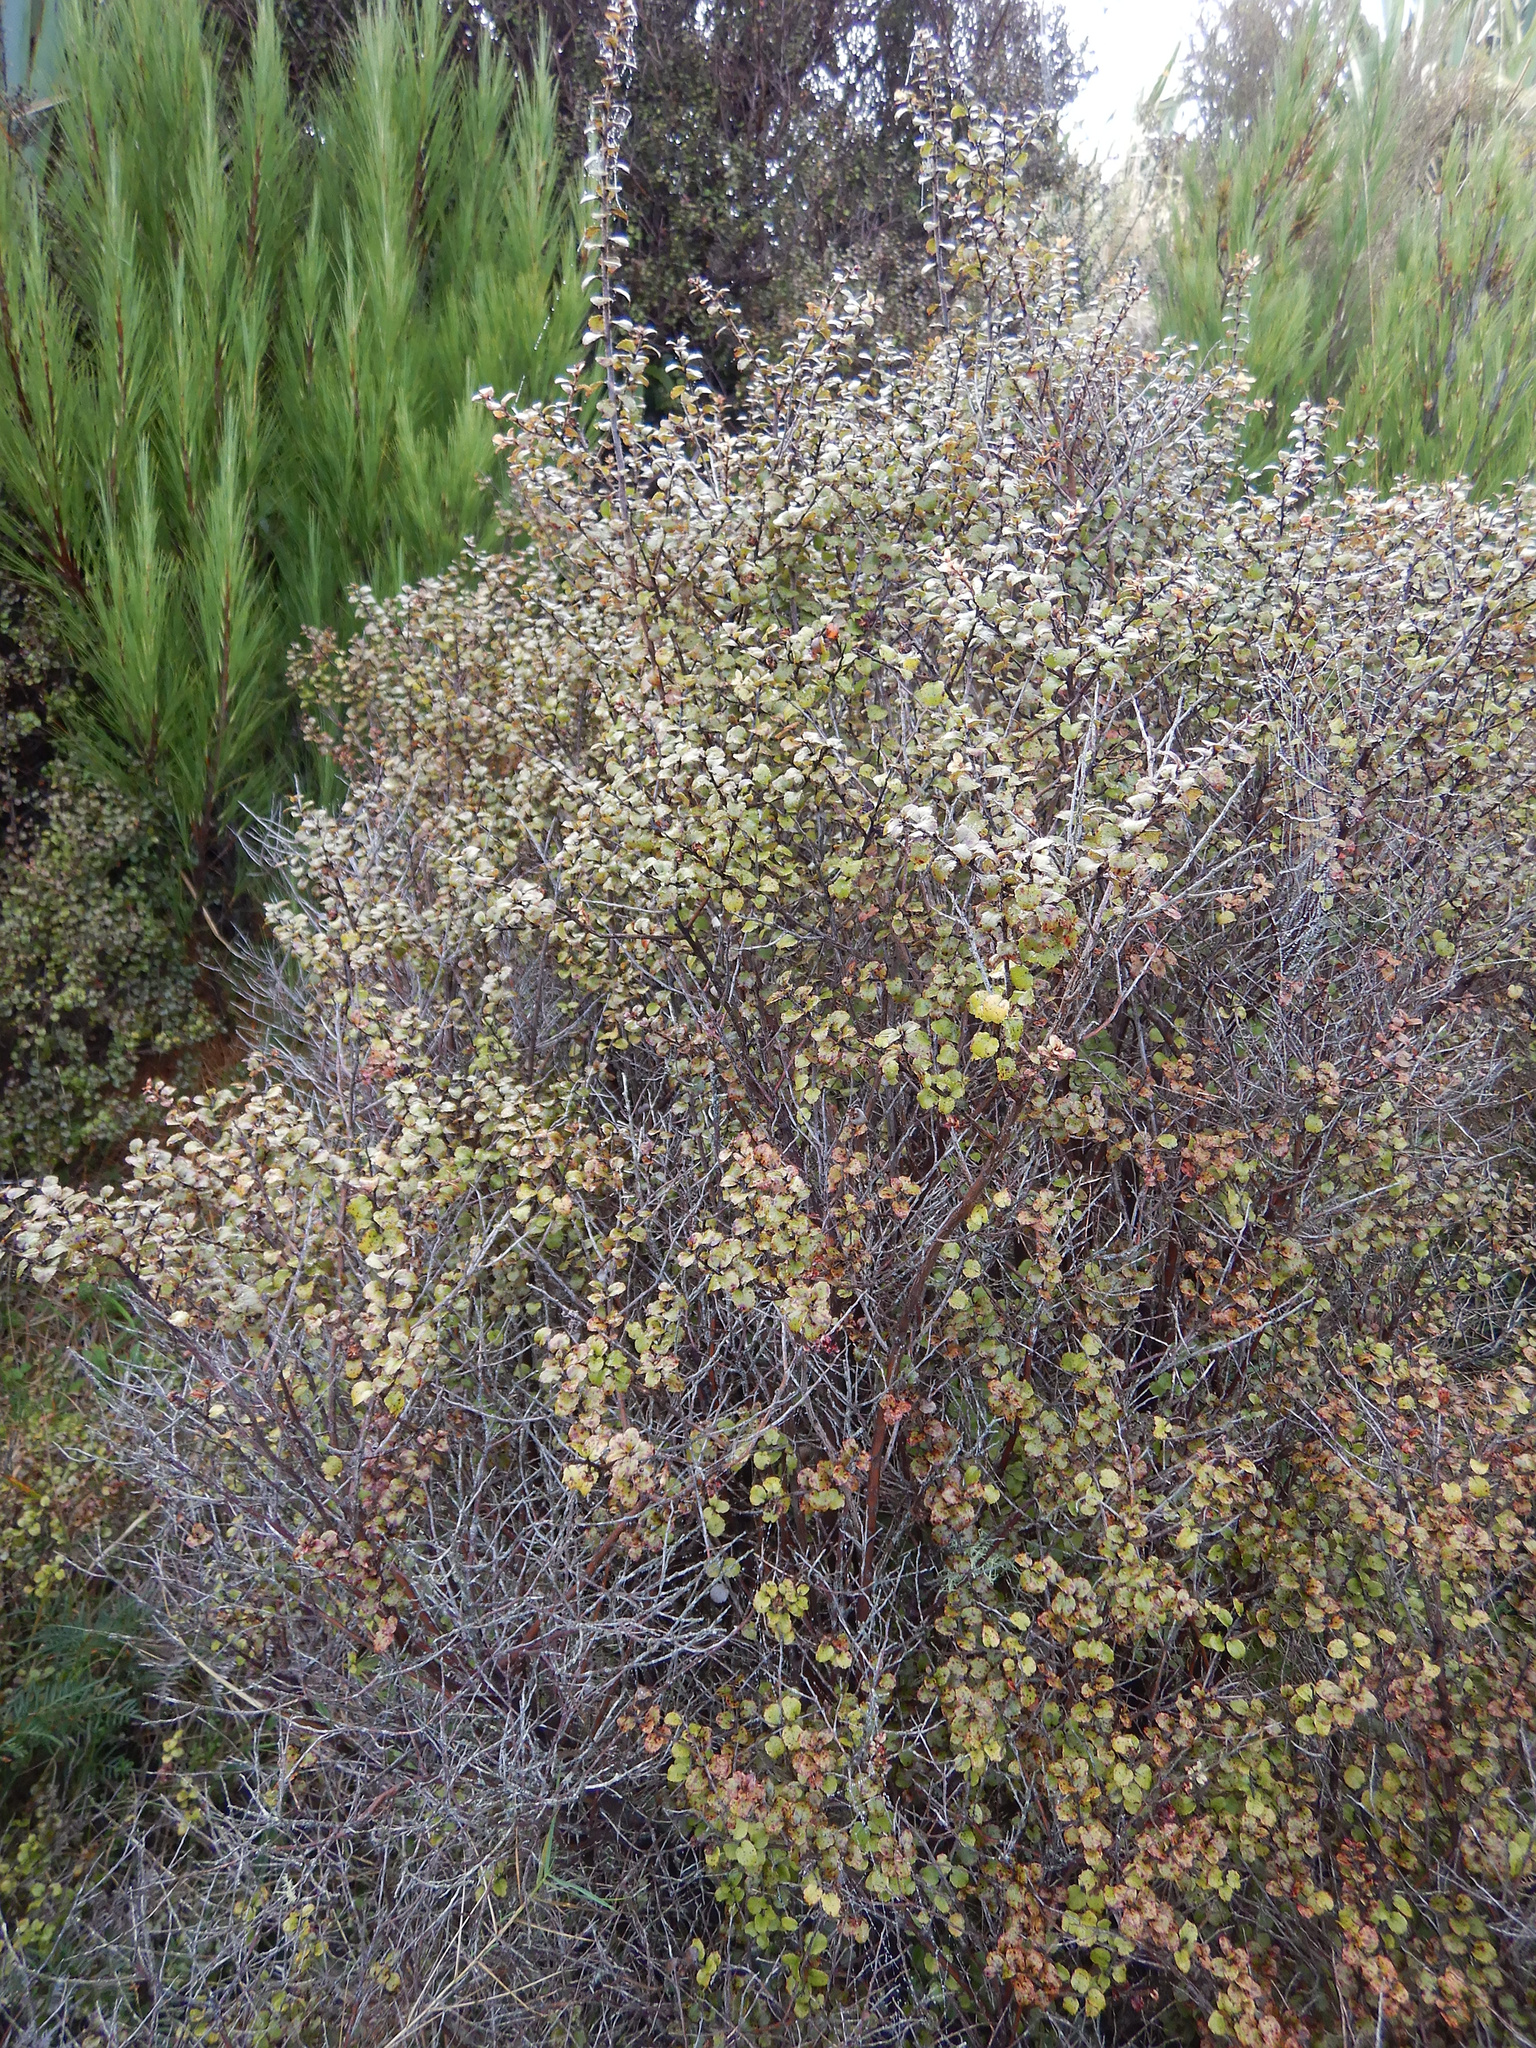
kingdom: Plantae
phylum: Tracheophyta
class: Magnoliopsida
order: Ericales
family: Ericaceae
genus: Gaultheria
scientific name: Gaultheria antipoda
